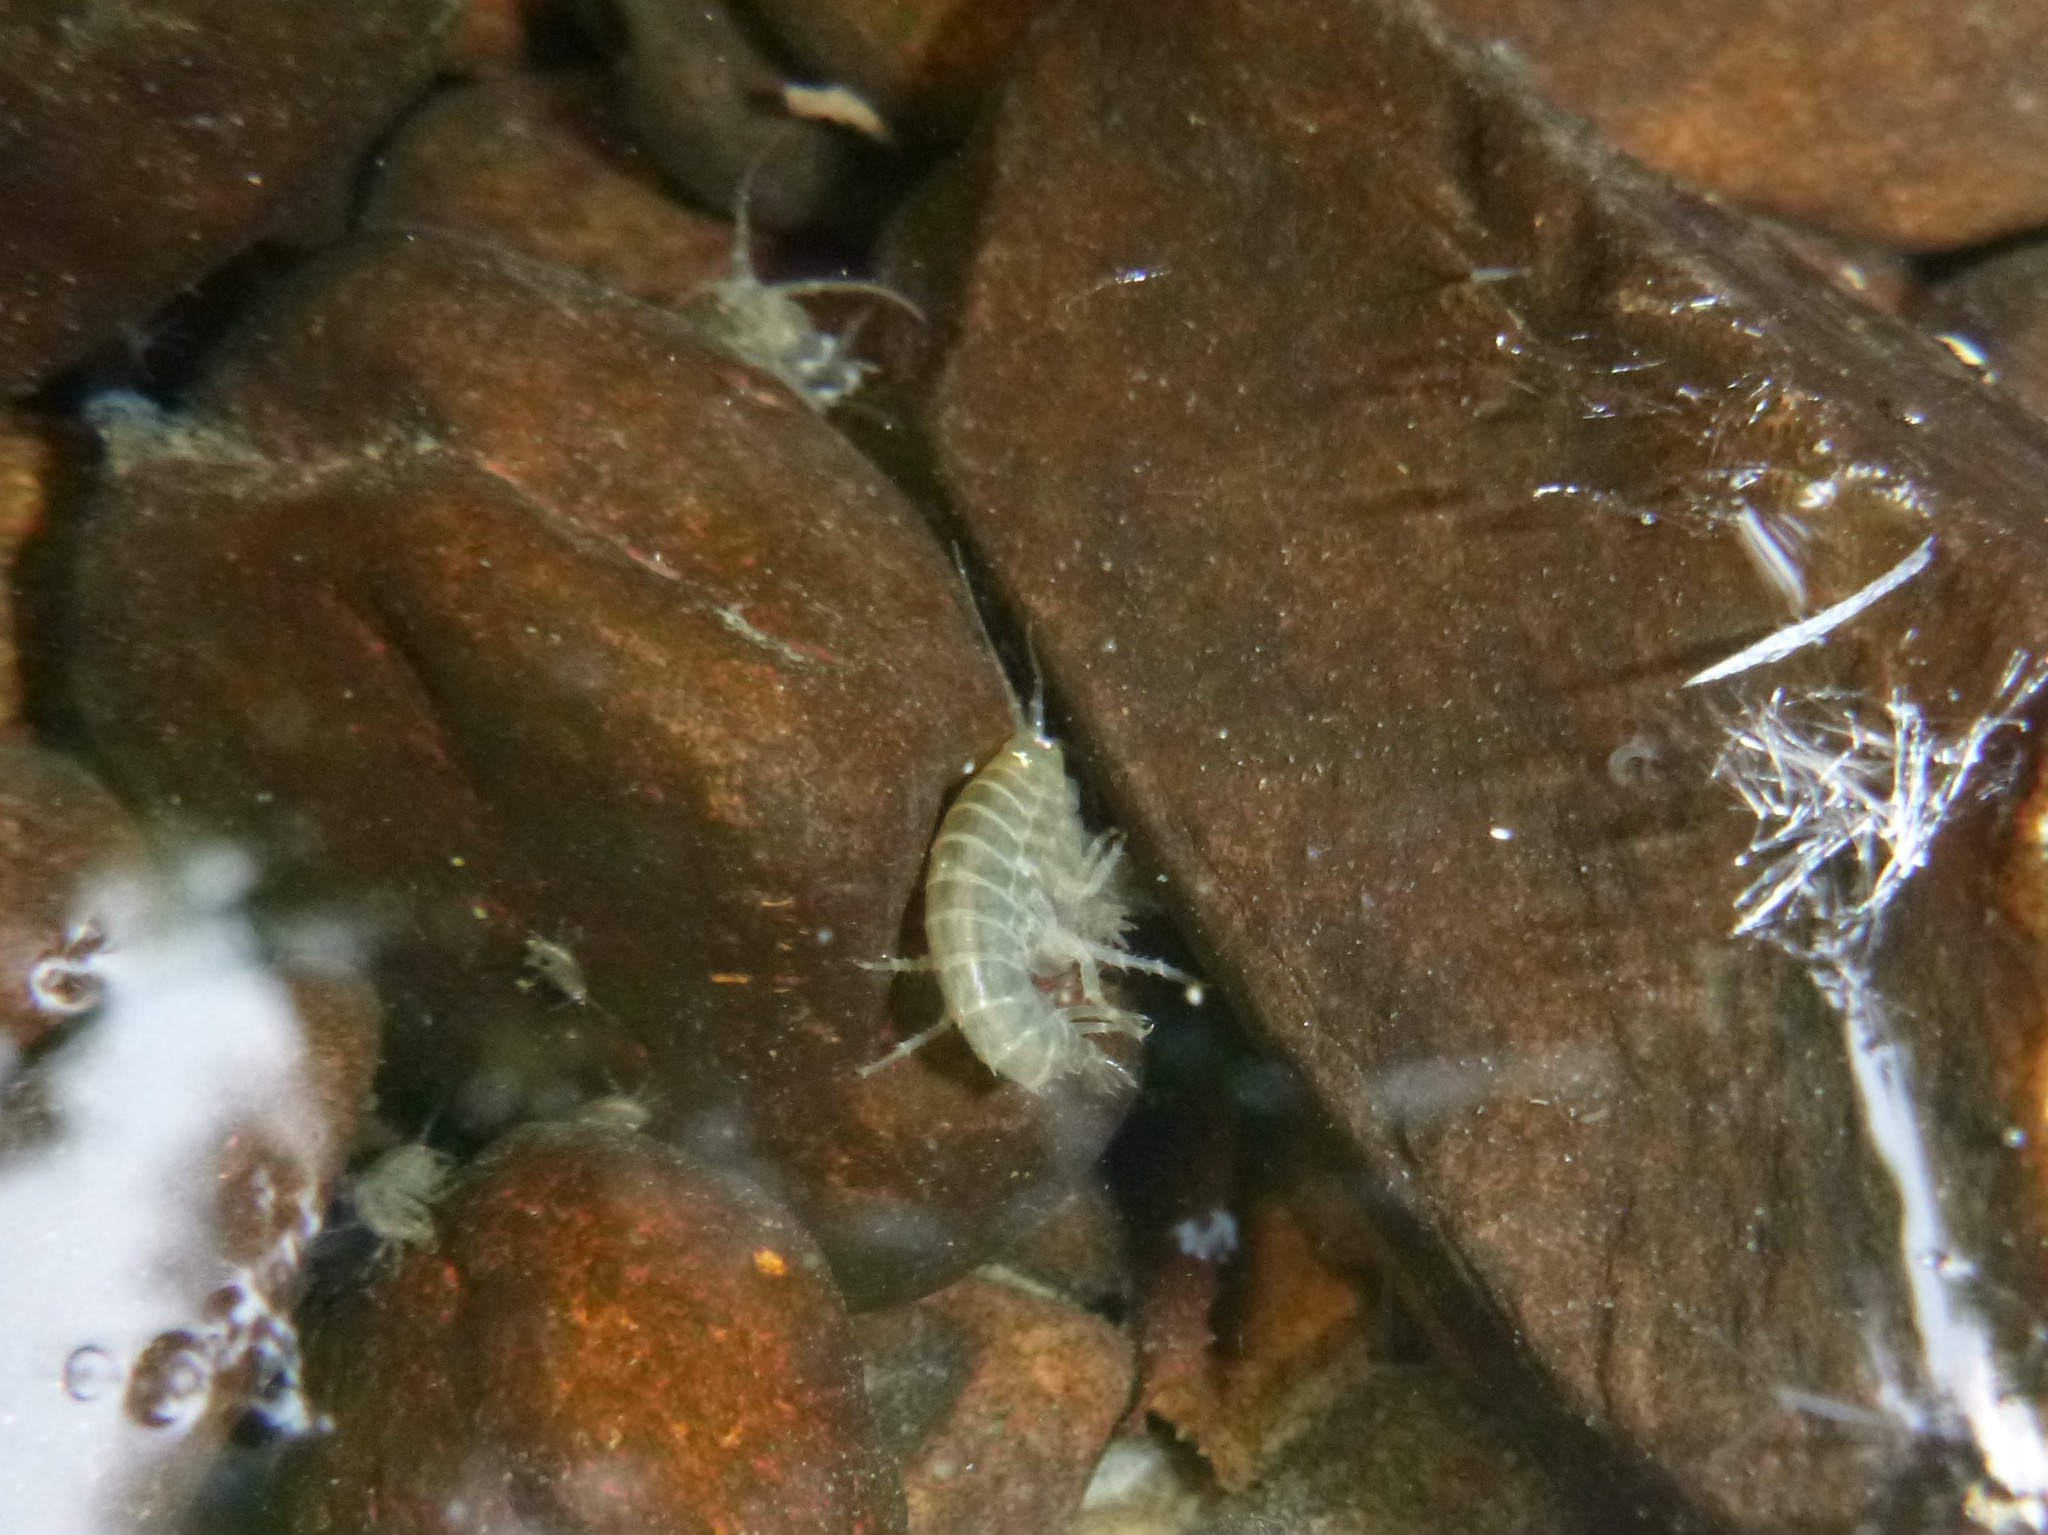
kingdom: Animalia
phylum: Arthropoda
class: Malacostraca
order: Amphipoda
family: Gammaridae
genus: Gammarus
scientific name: Gammarus roeselii
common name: Lacustrine amphipod
